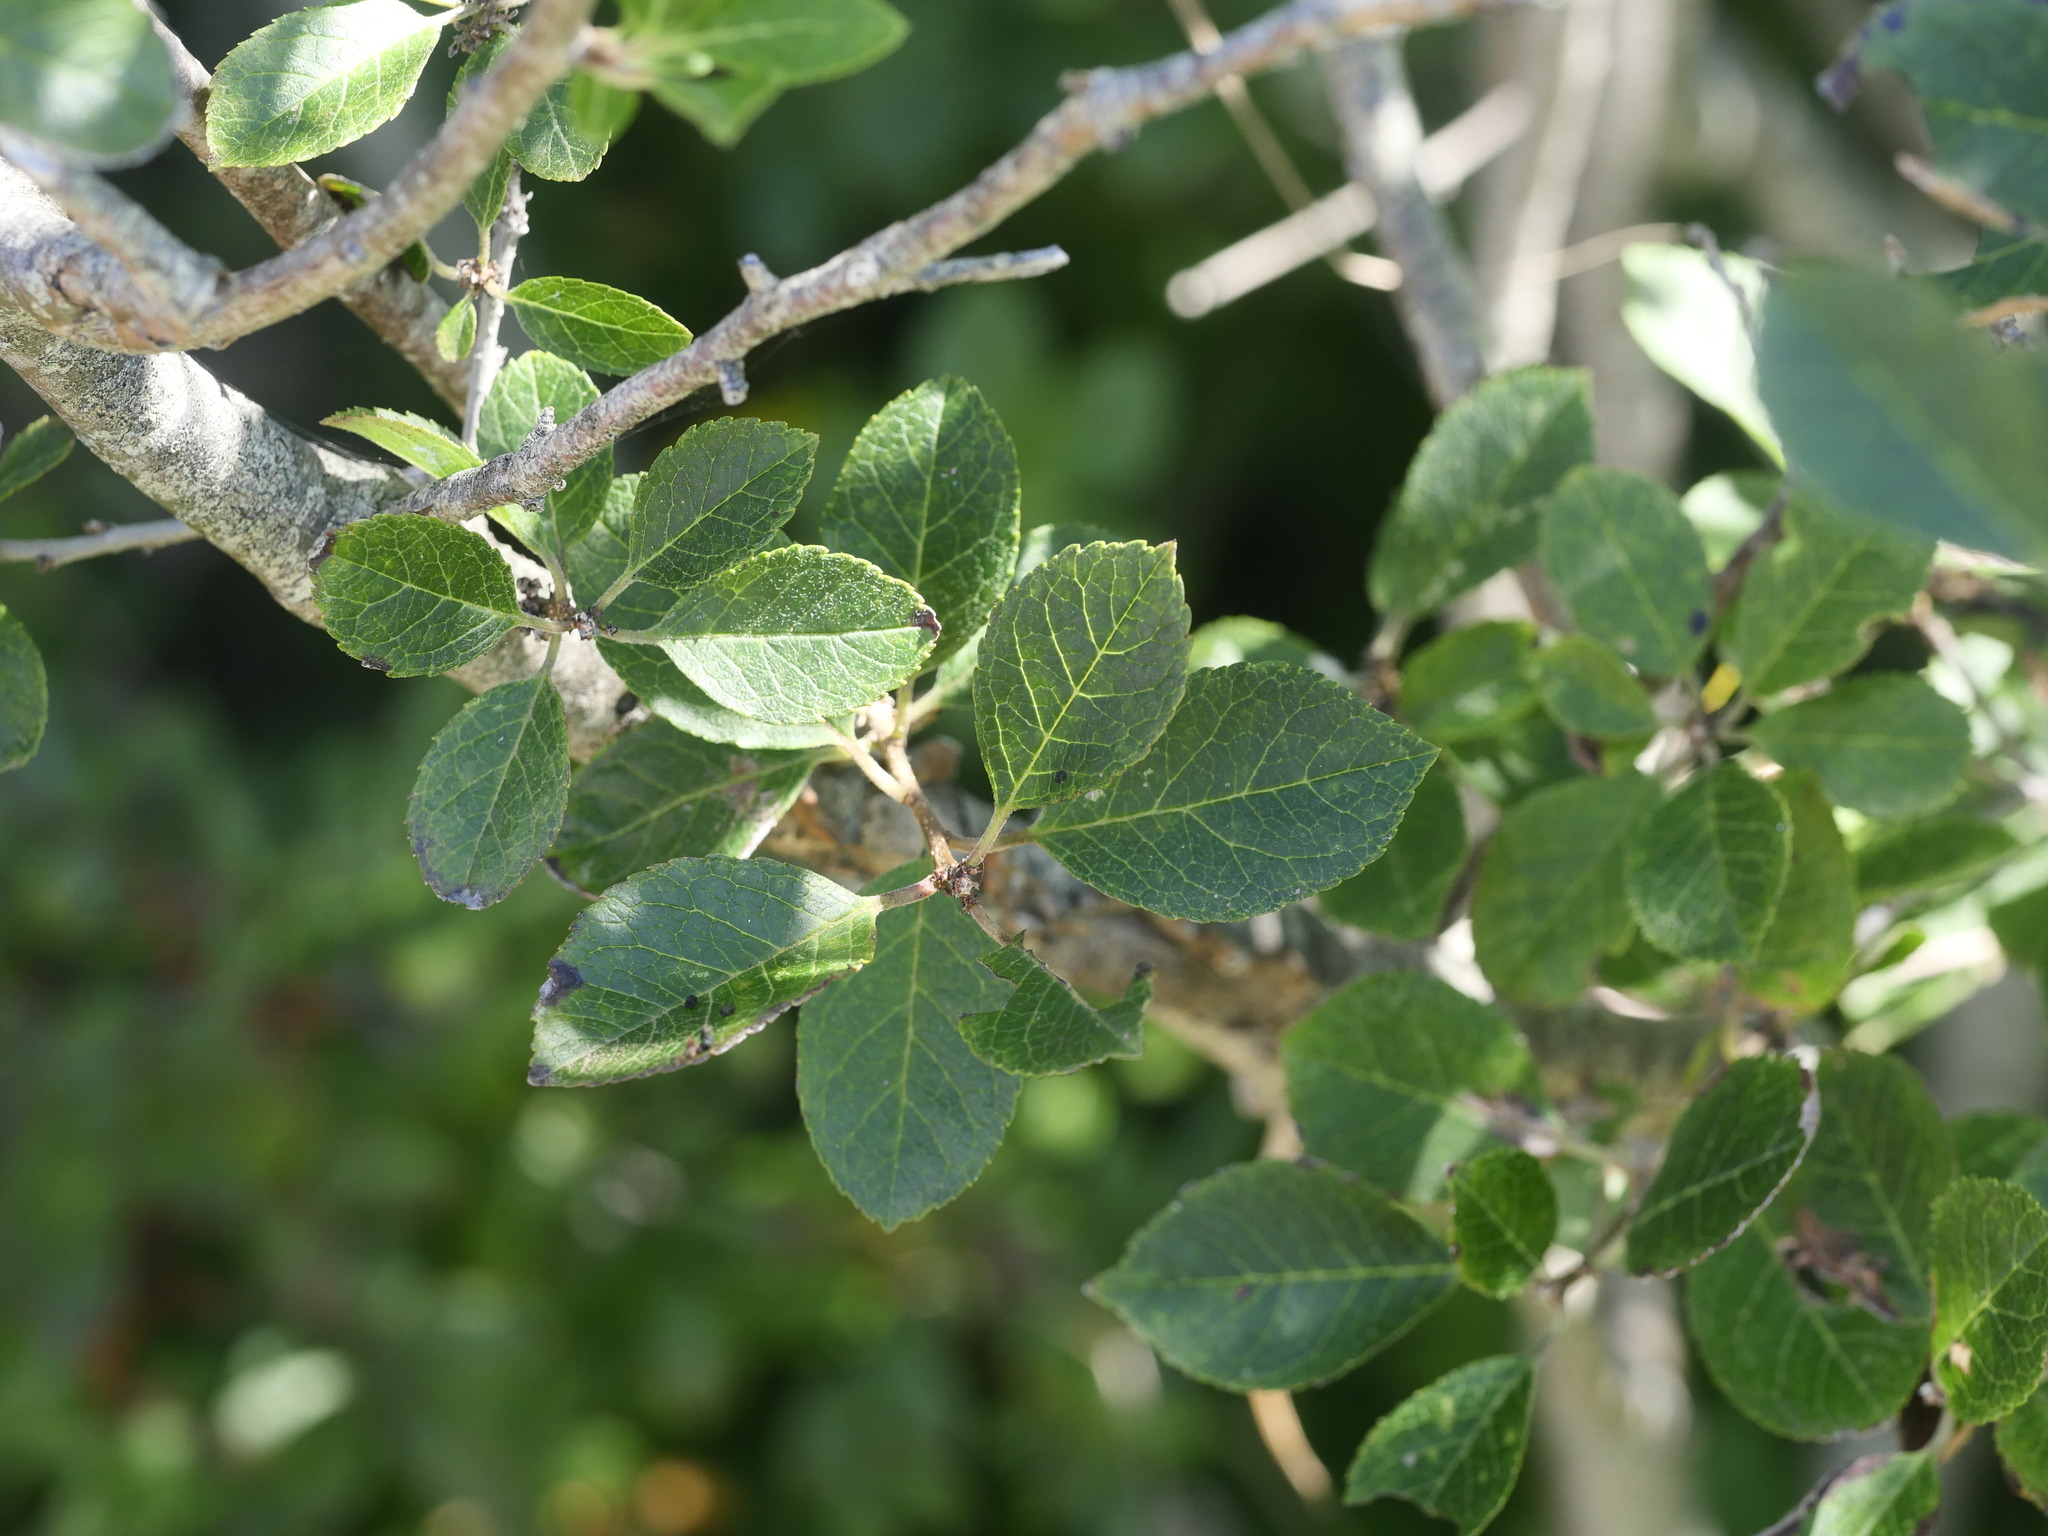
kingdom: Plantae
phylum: Tracheophyta
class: Magnoliopsida
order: Aquifoliales
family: Aquifoliaceae
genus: Ilex
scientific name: Ilex verticillata
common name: Virginia winterberry
